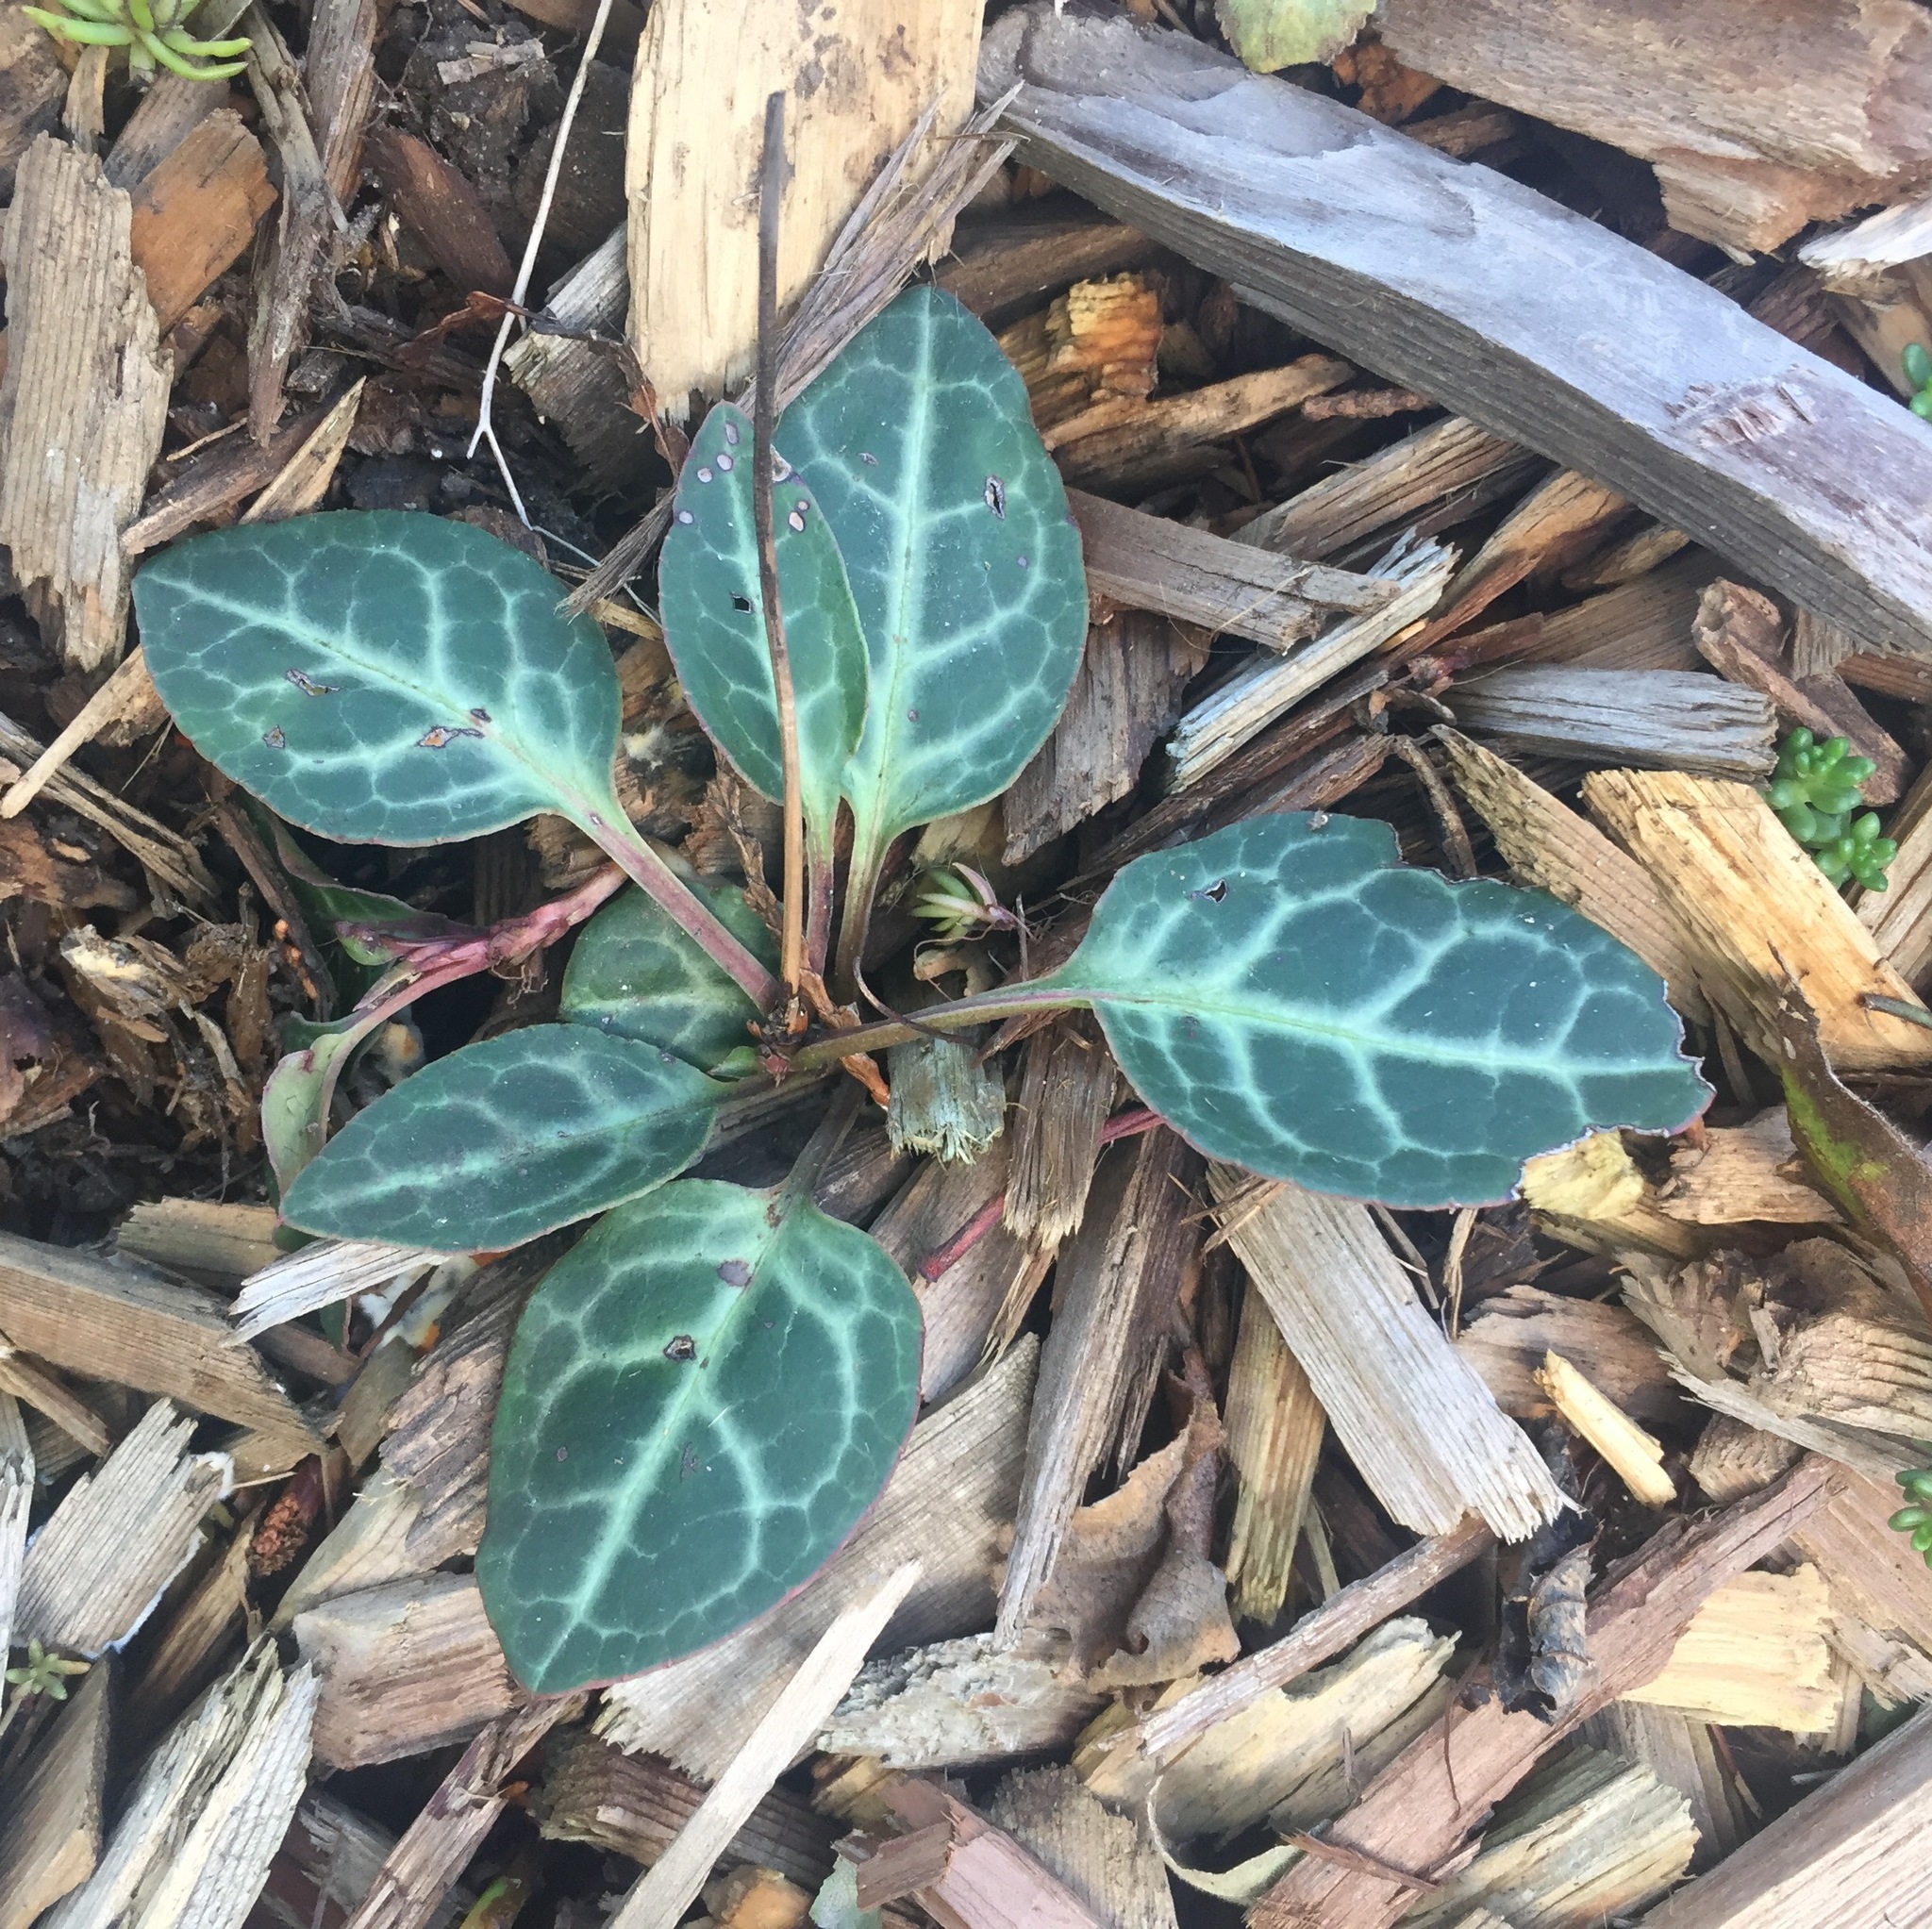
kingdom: Plantae
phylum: Tracheophyta
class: Magnoliopsida
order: Ericales
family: Ericaceae
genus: Pyrola
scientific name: Pyrola picta
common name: White-vein wintergreen
